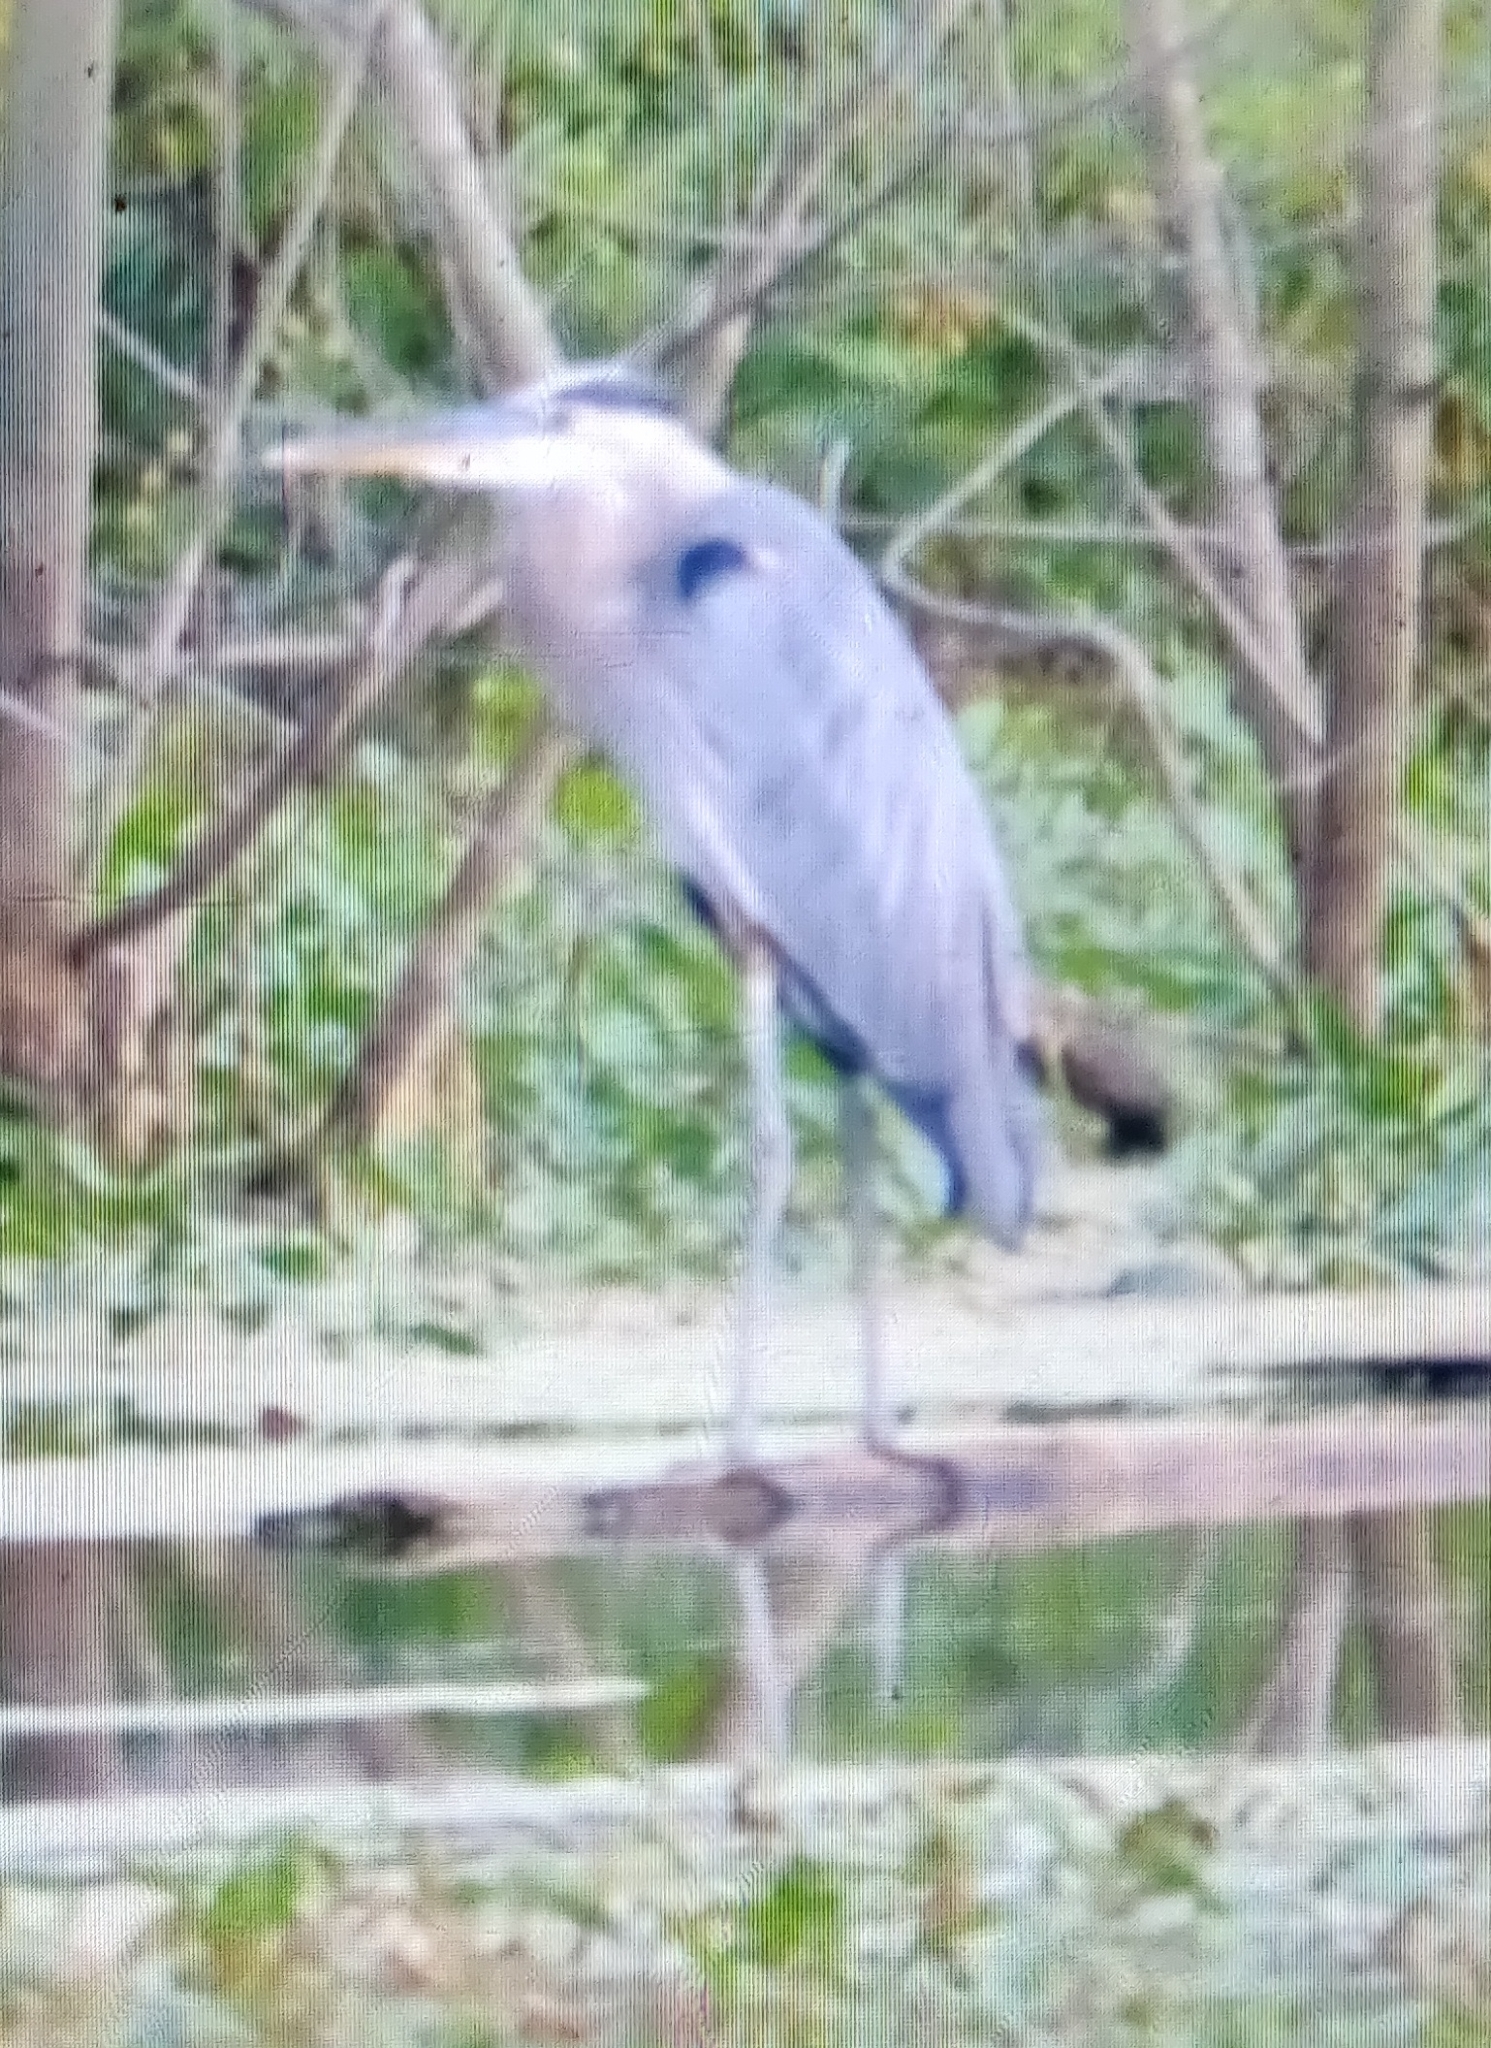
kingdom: Animalia
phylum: Chordata
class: Aves
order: Pelecaniformes
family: Ardeidae
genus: Ardea
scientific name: Ardea herodias
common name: Great blue heron
